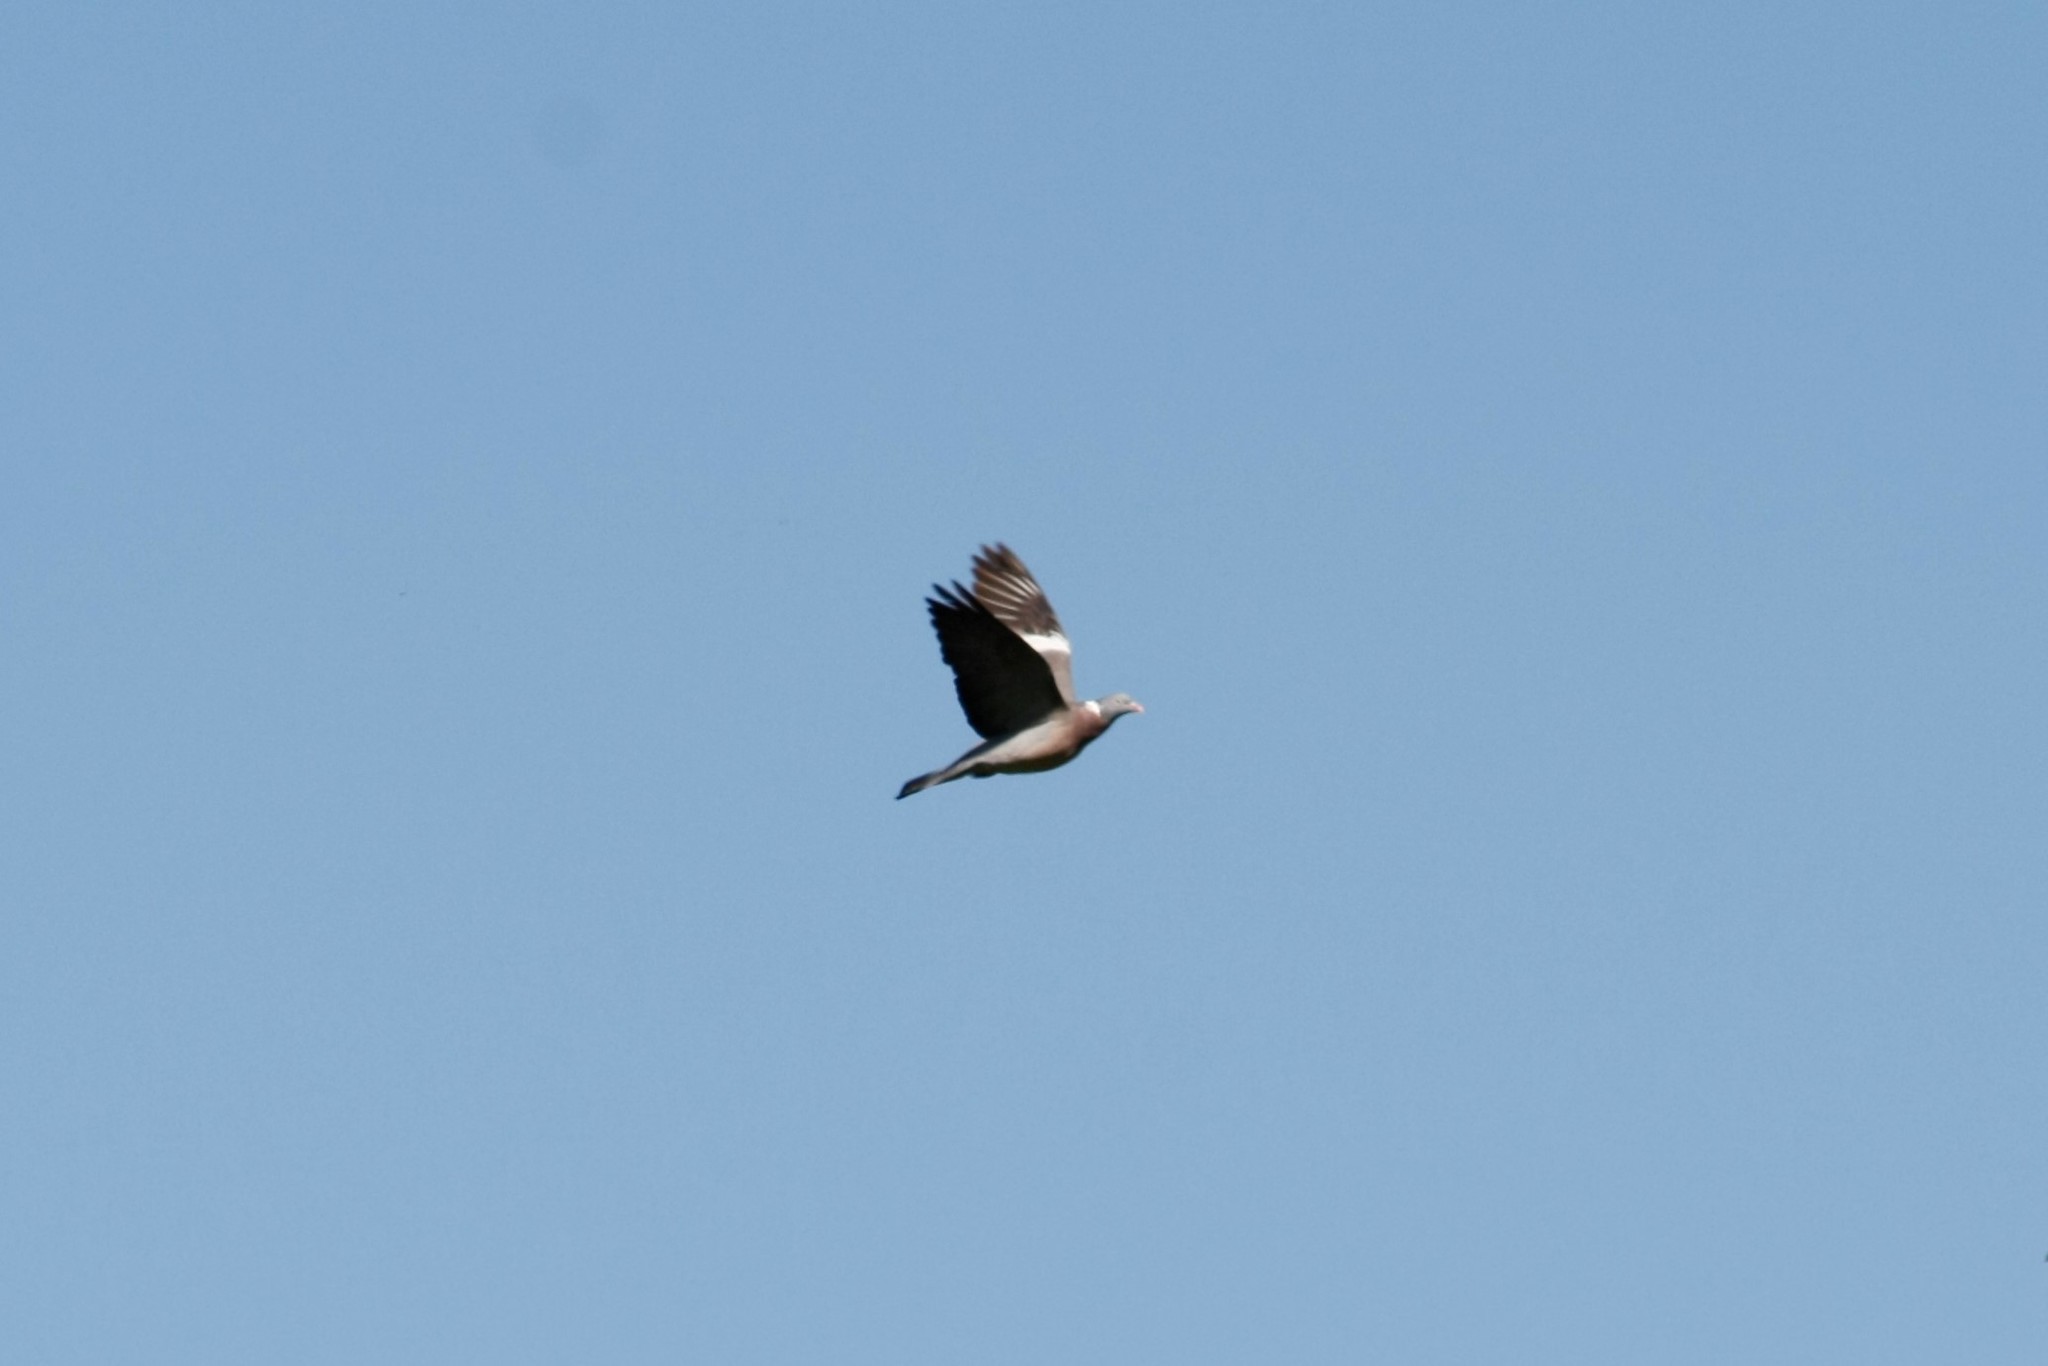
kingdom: Animalia
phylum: Chordata
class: Aves
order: Columbiformes
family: Columbidae
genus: Columba
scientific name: Columba palumbus
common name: Common wood pigeon
